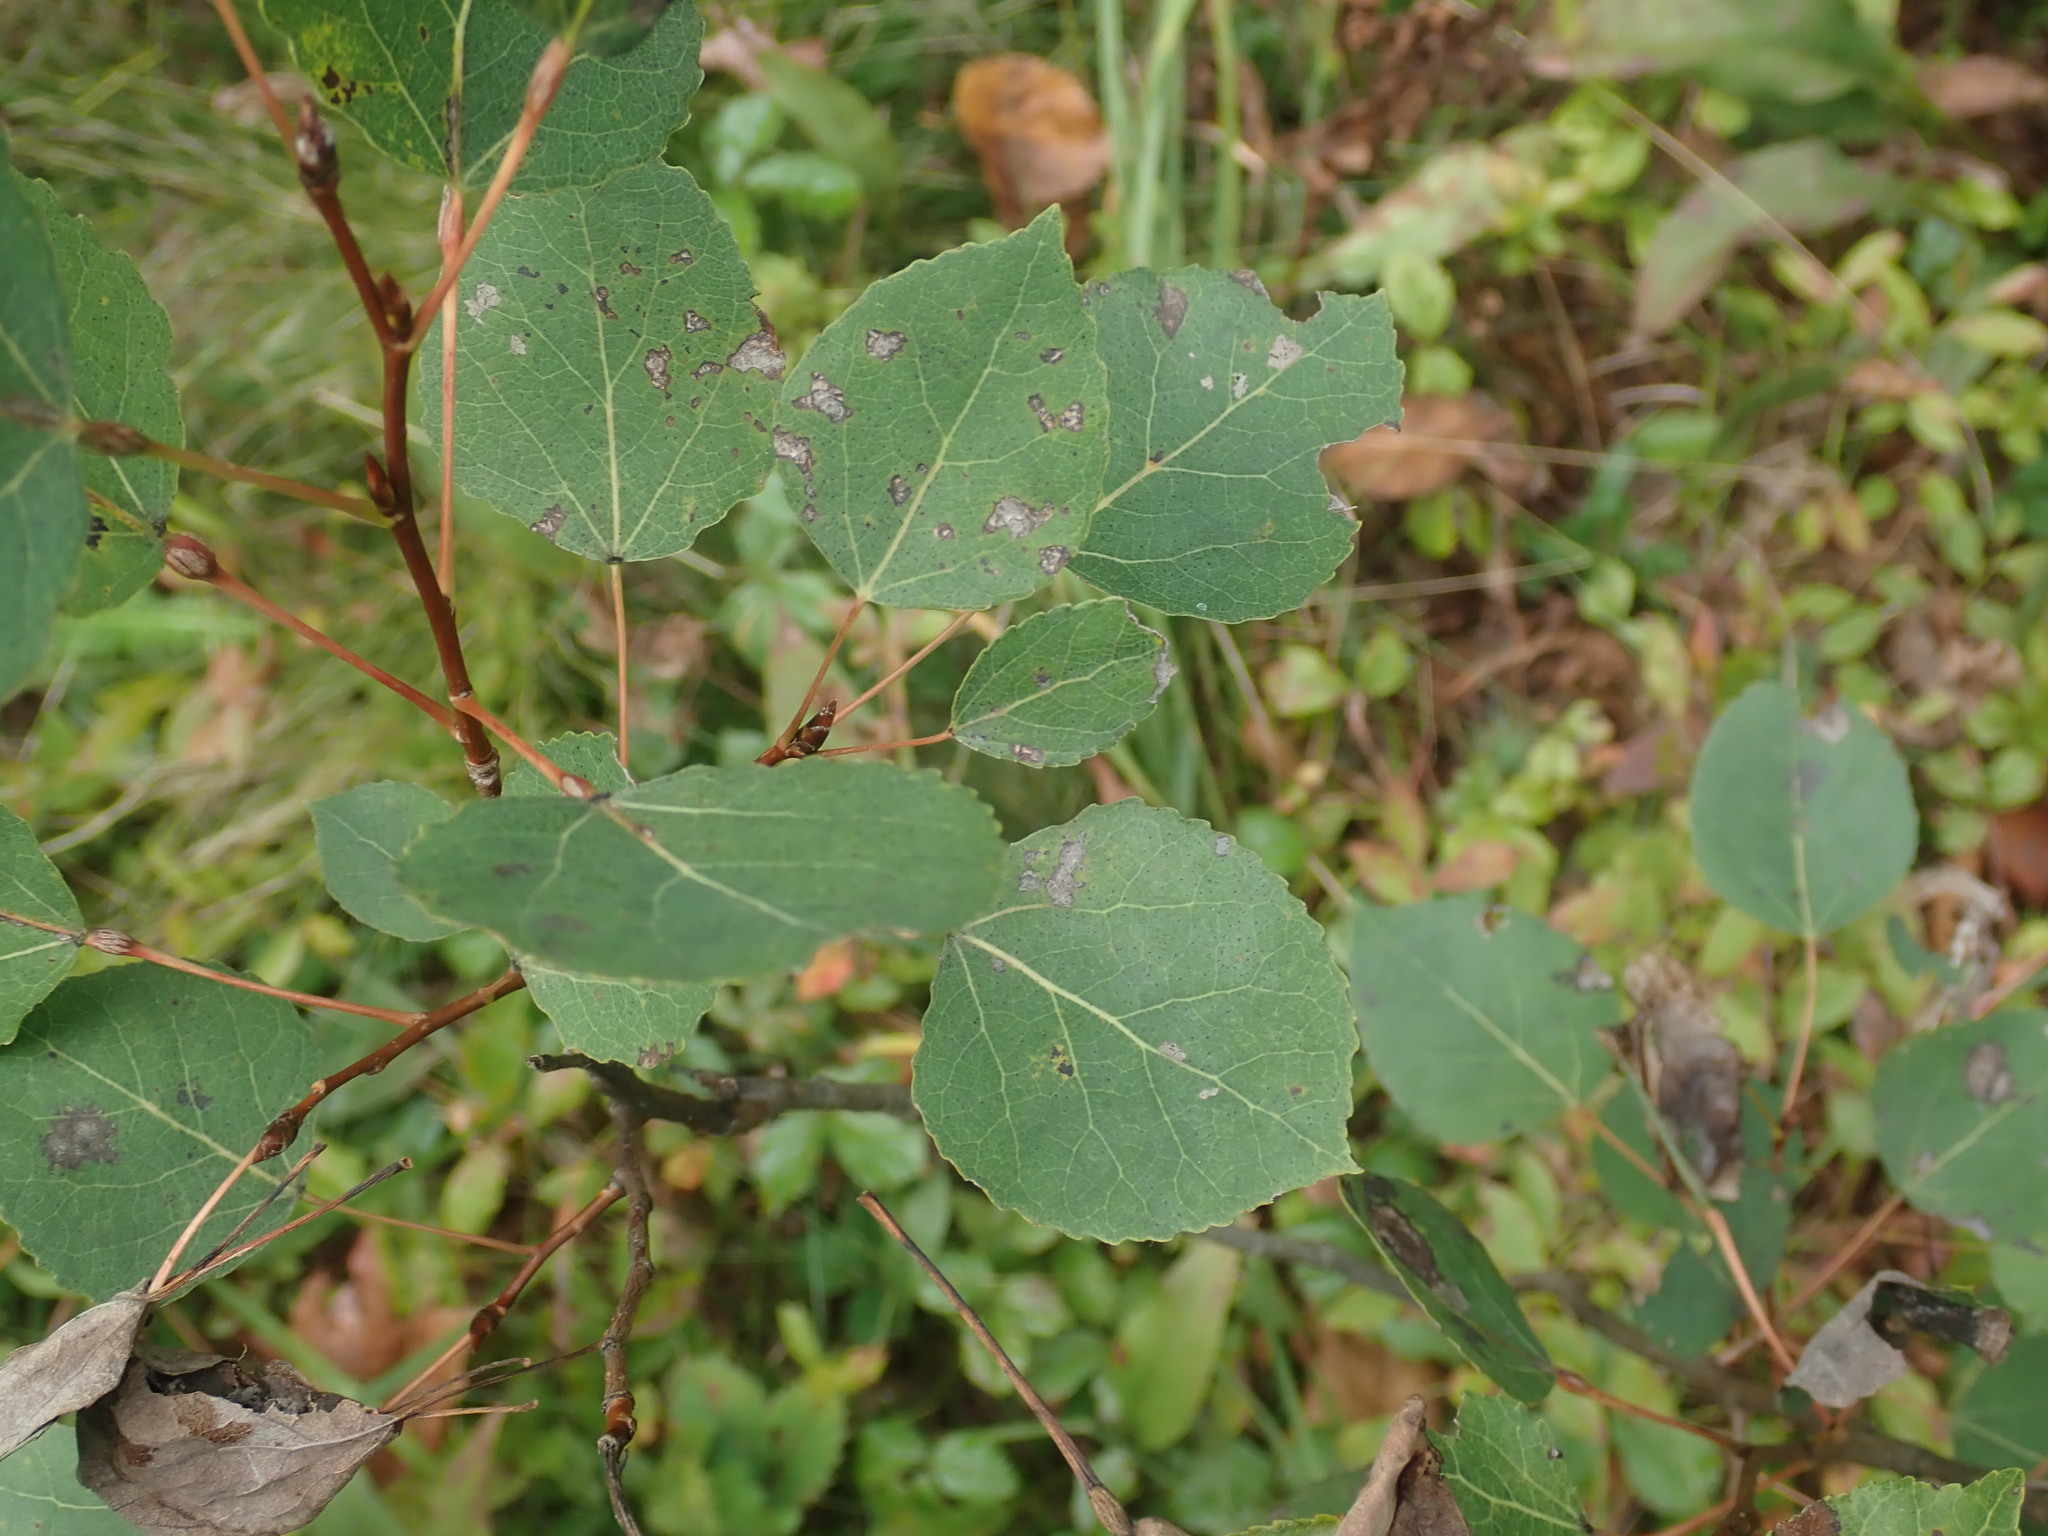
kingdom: Plantae
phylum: Tracheophyta
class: Magnoliopsida
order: Malpighiales
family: Salicaceae
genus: Populus
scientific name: Populus tremuloides
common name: Quaking aspen
